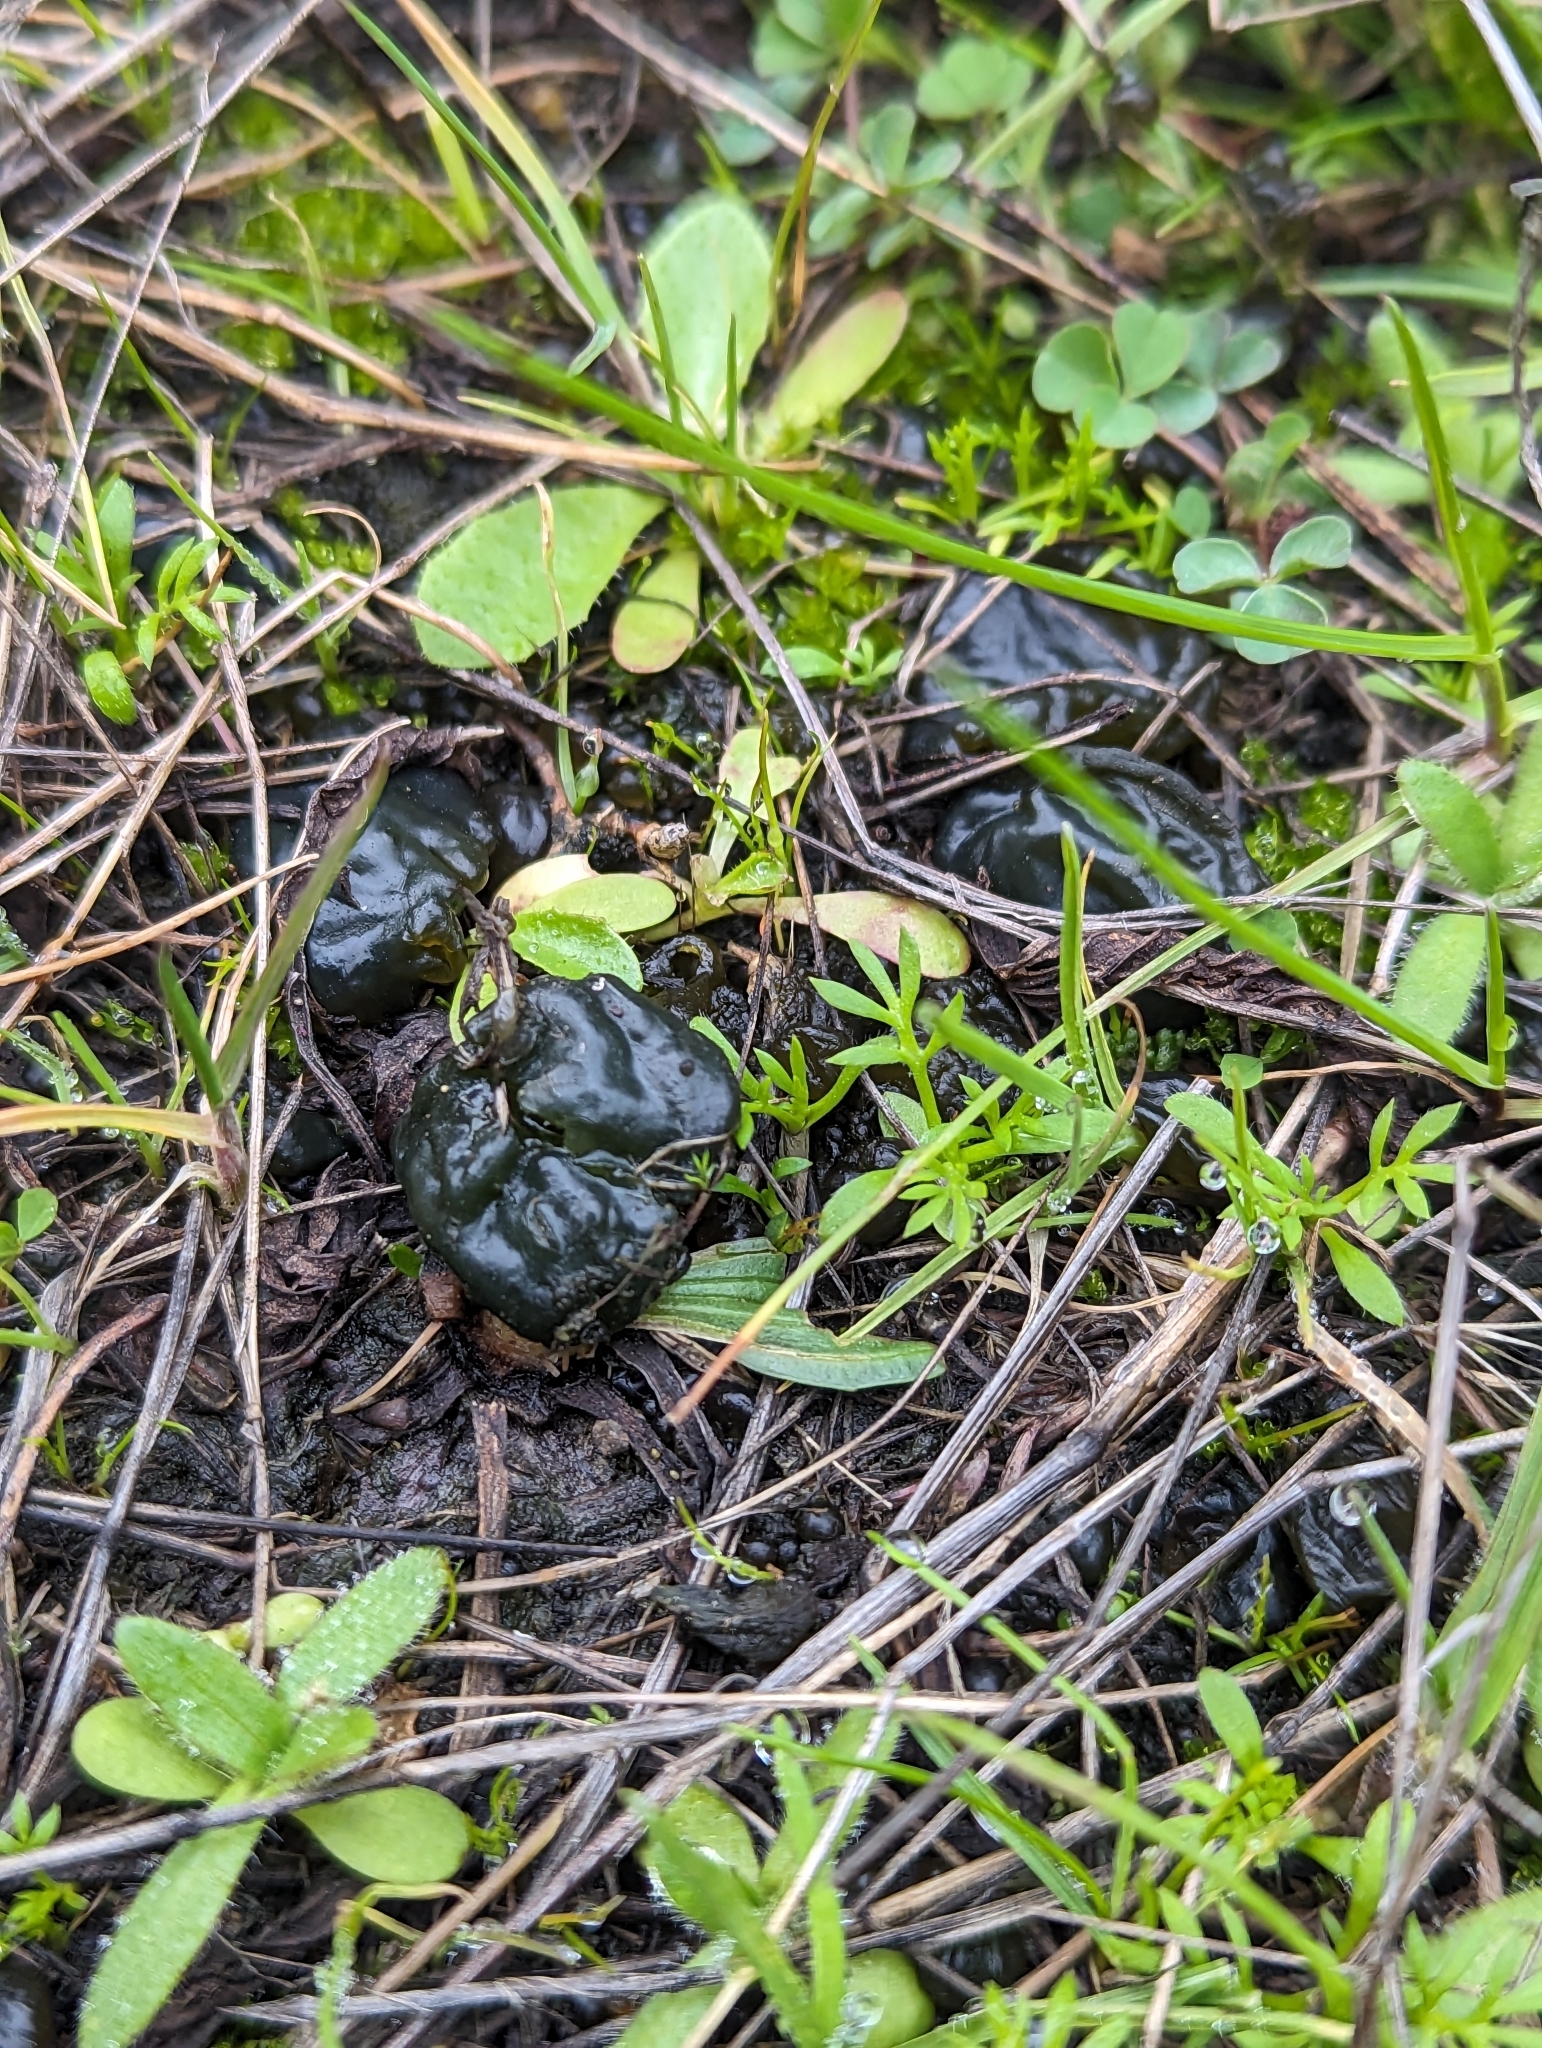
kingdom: Bacteria
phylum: Cyanobacteria
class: Cyanobacteriia
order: Cyanobacteriales
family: Nostocaceae
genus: Nostoc
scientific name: Nostoc commune
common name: Star jelly
